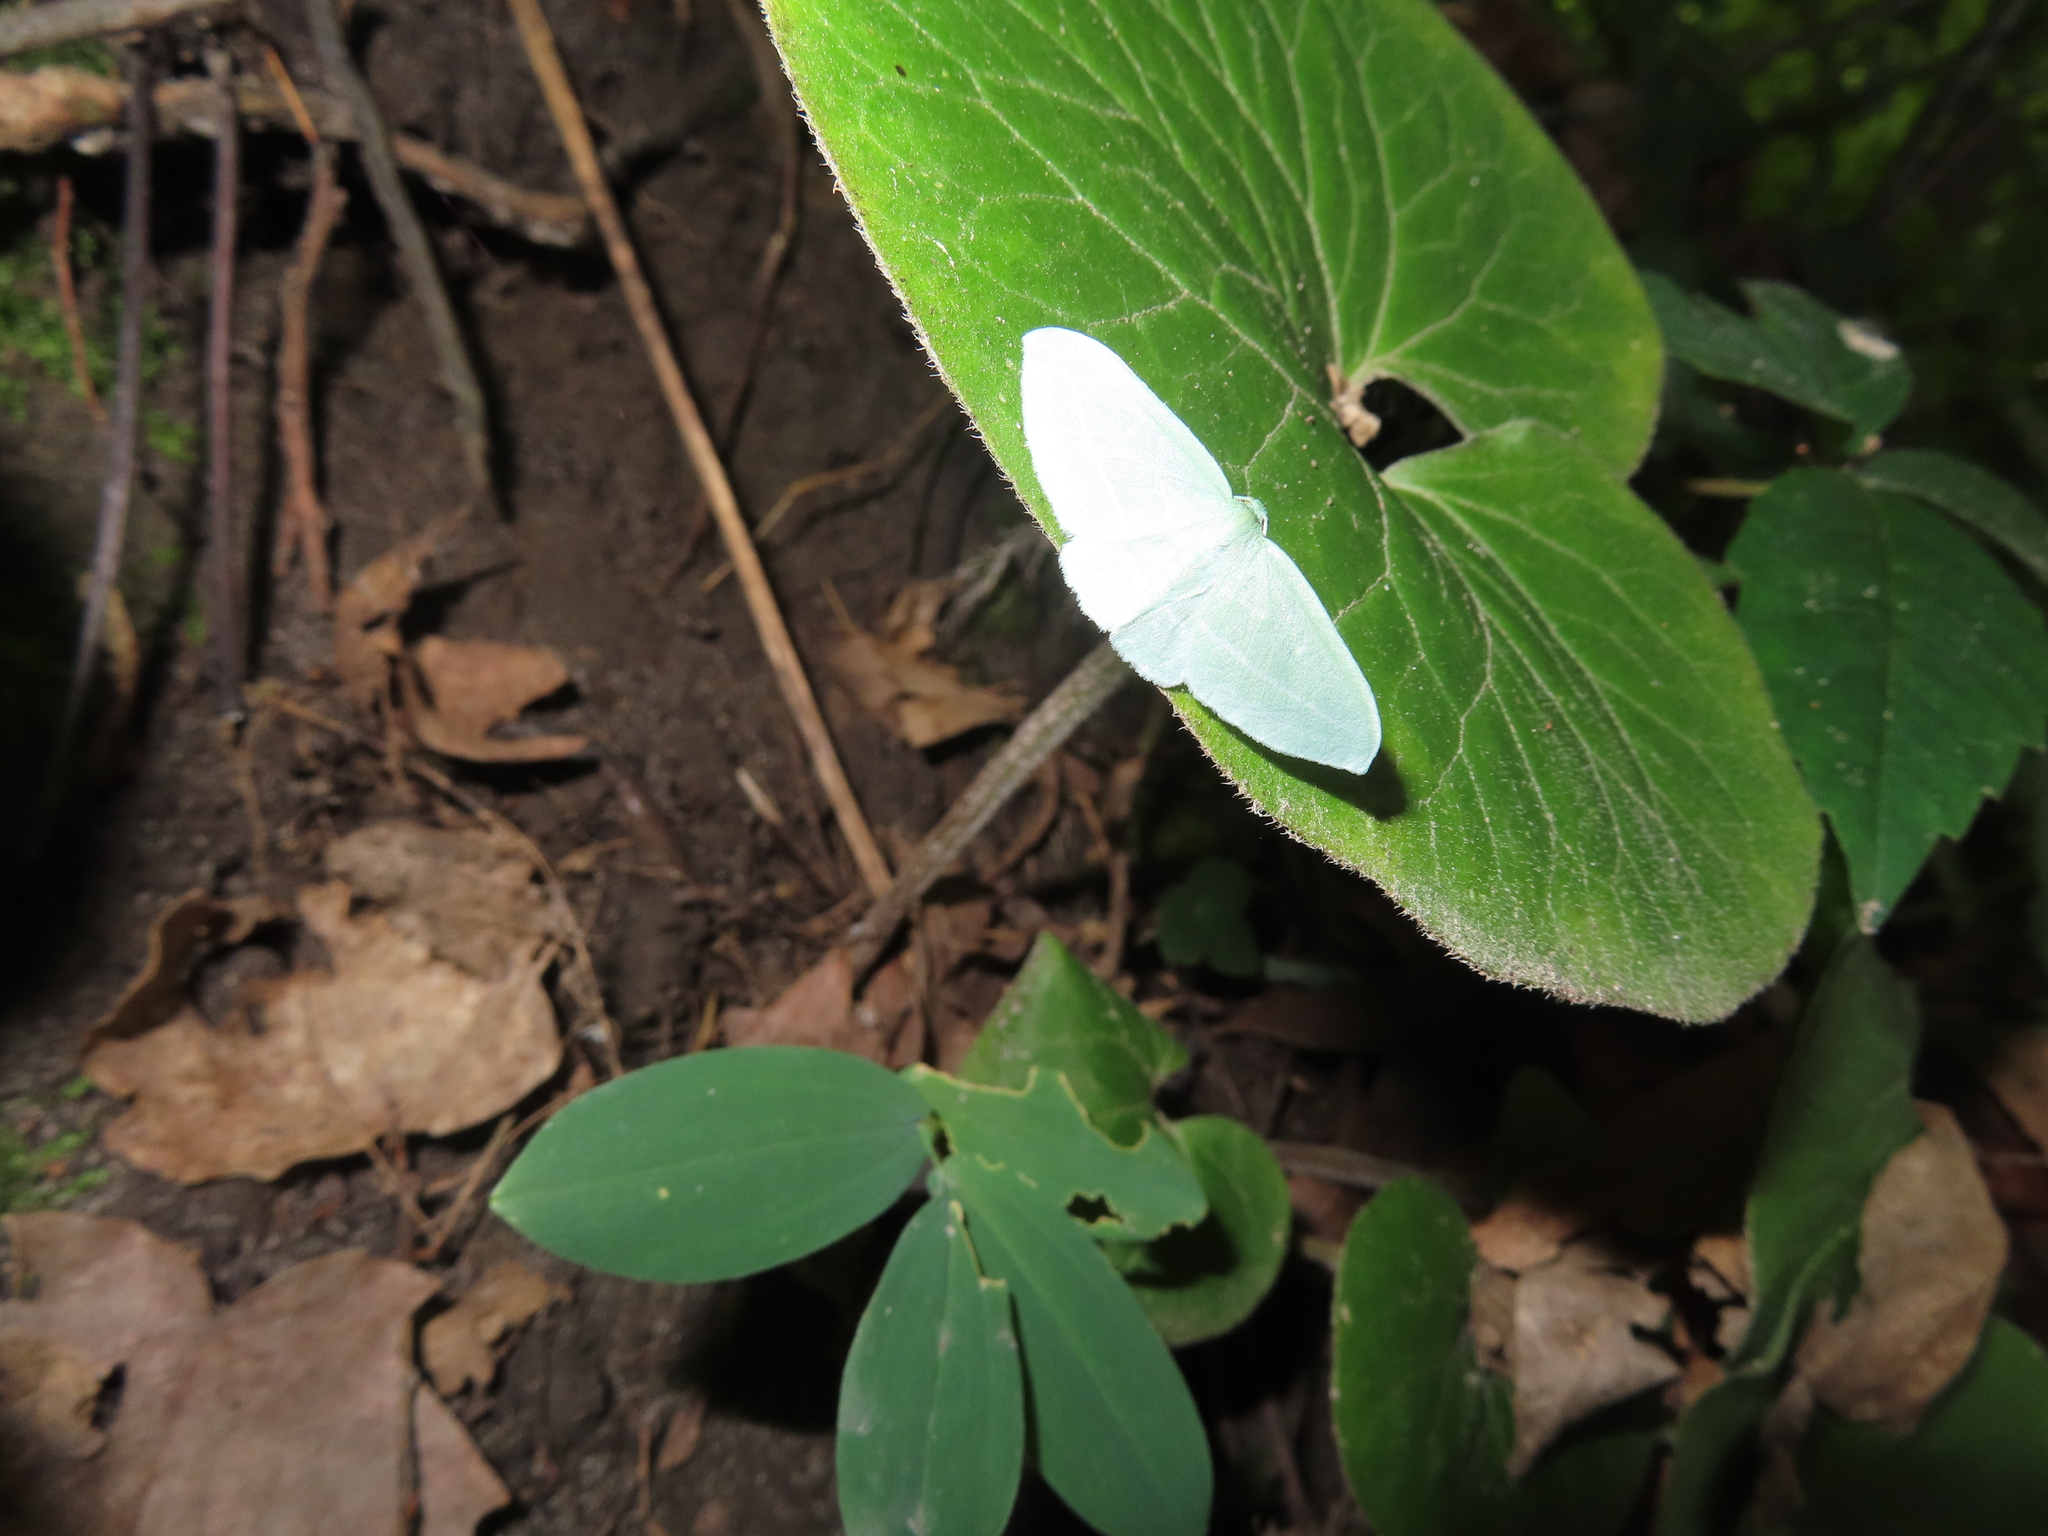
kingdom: Animalia
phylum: Arthropoda
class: Insecta
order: Lepidoptera
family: Geometridae
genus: Dyspteris
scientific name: Dyspteris abortivaria
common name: Bad-wing
